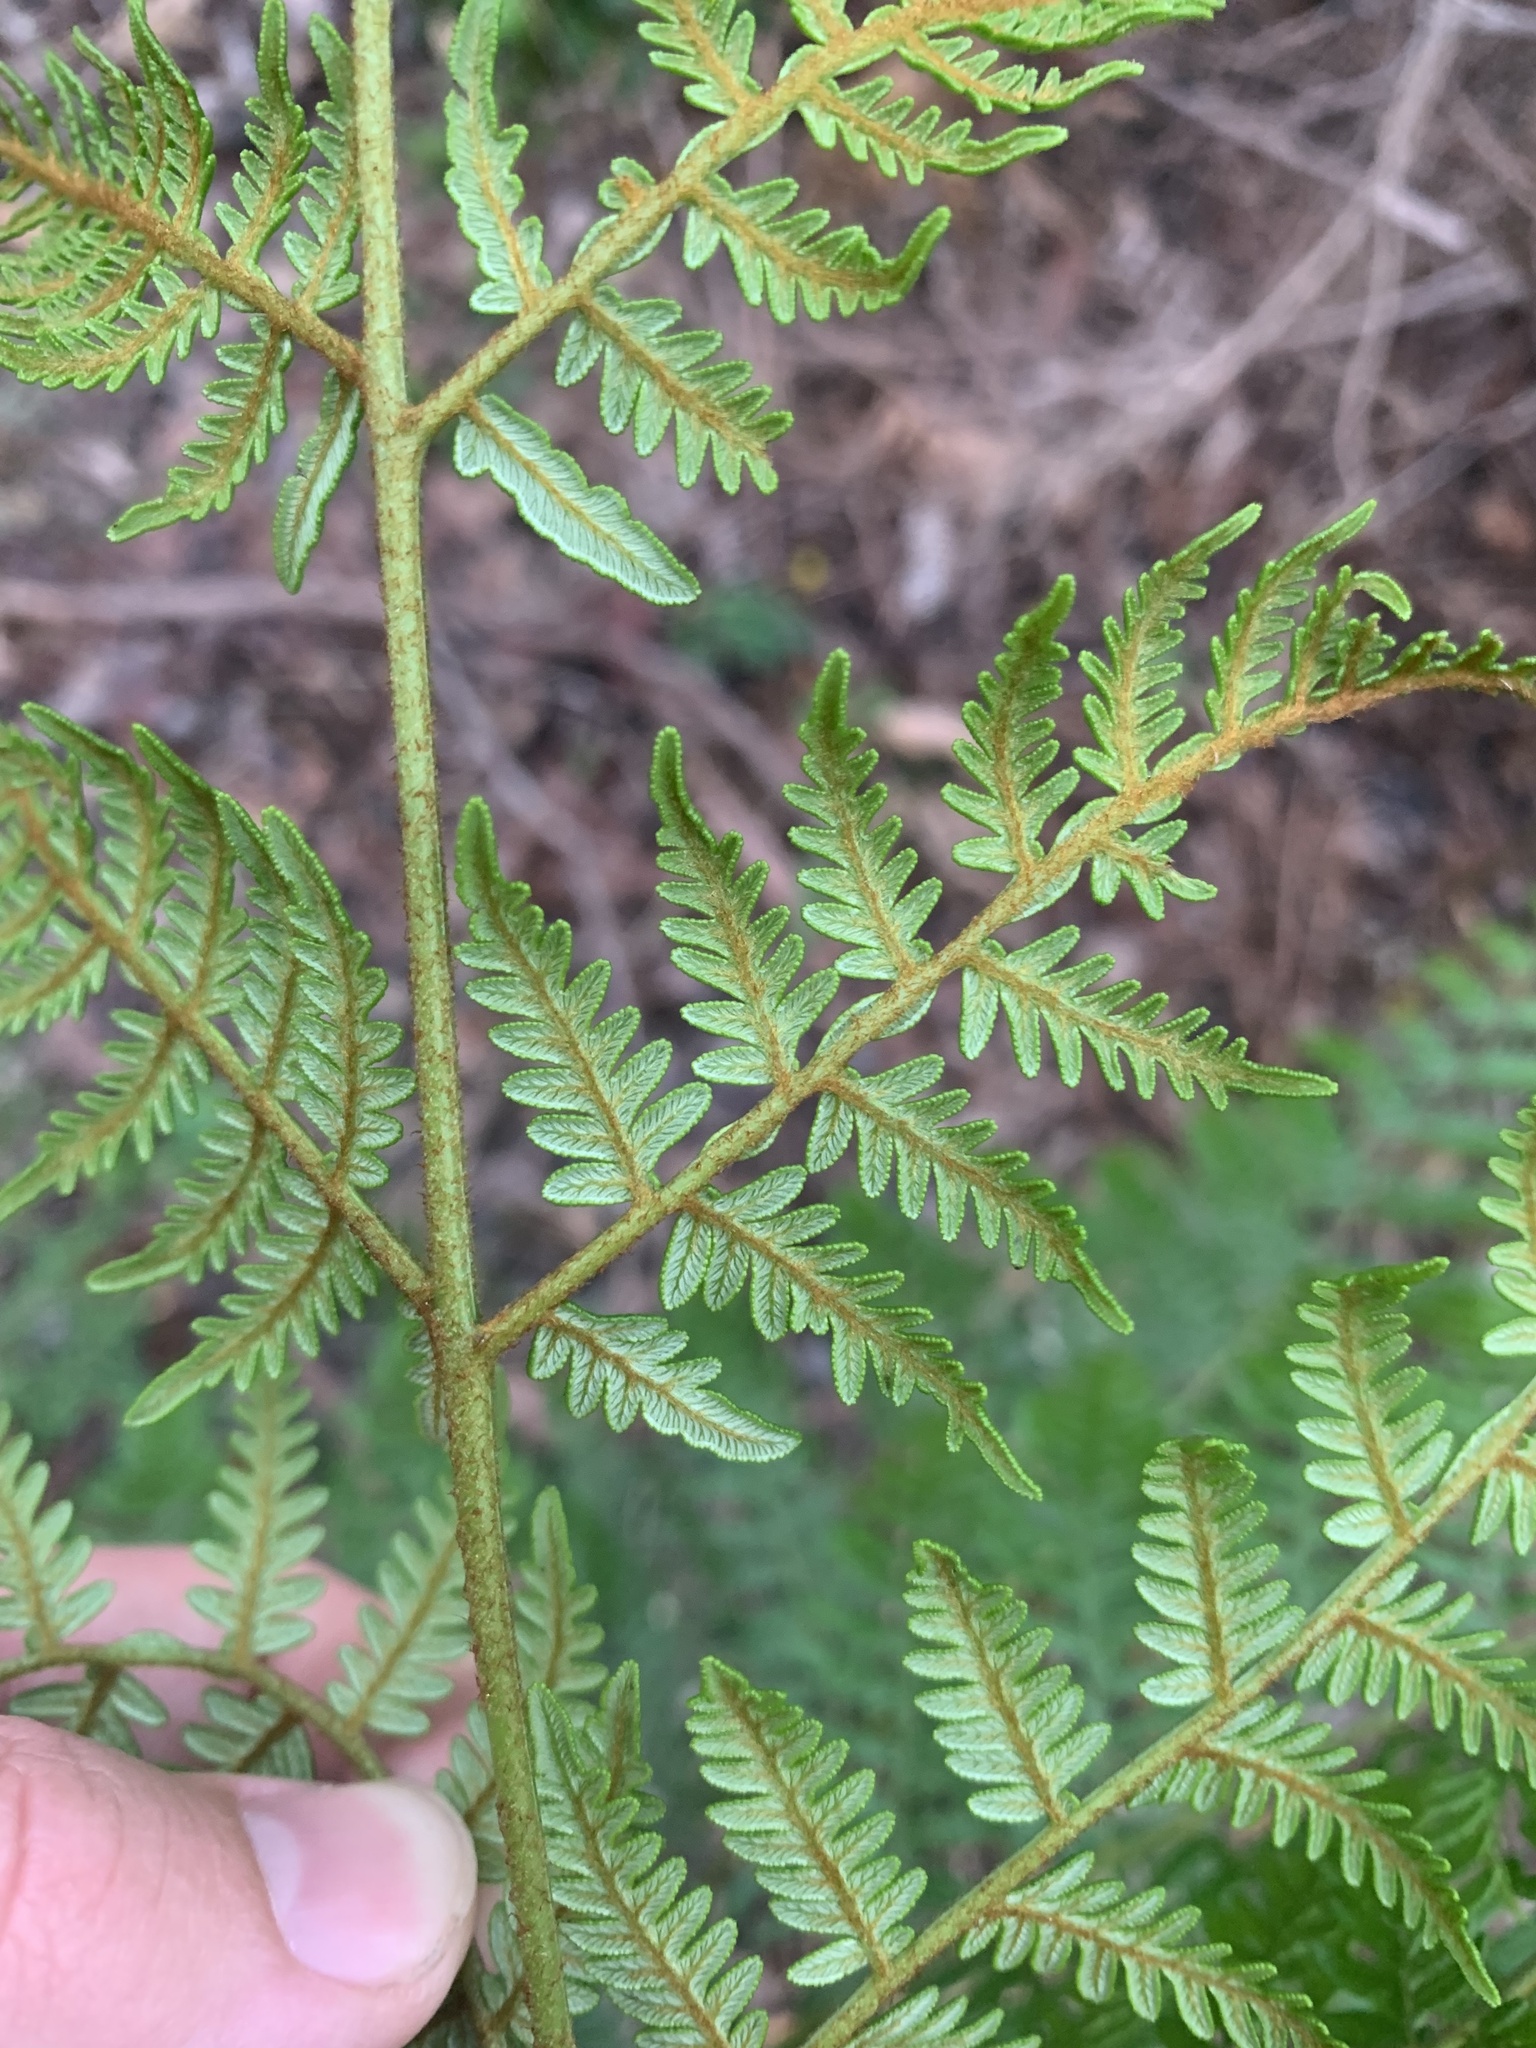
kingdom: Plantae
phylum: Tracheophyta
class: Polypodiopsida
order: Polypodiales
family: Dennstaedtiaceae
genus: Pteridium
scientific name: Pteridium esculentum
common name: Bracken fern
